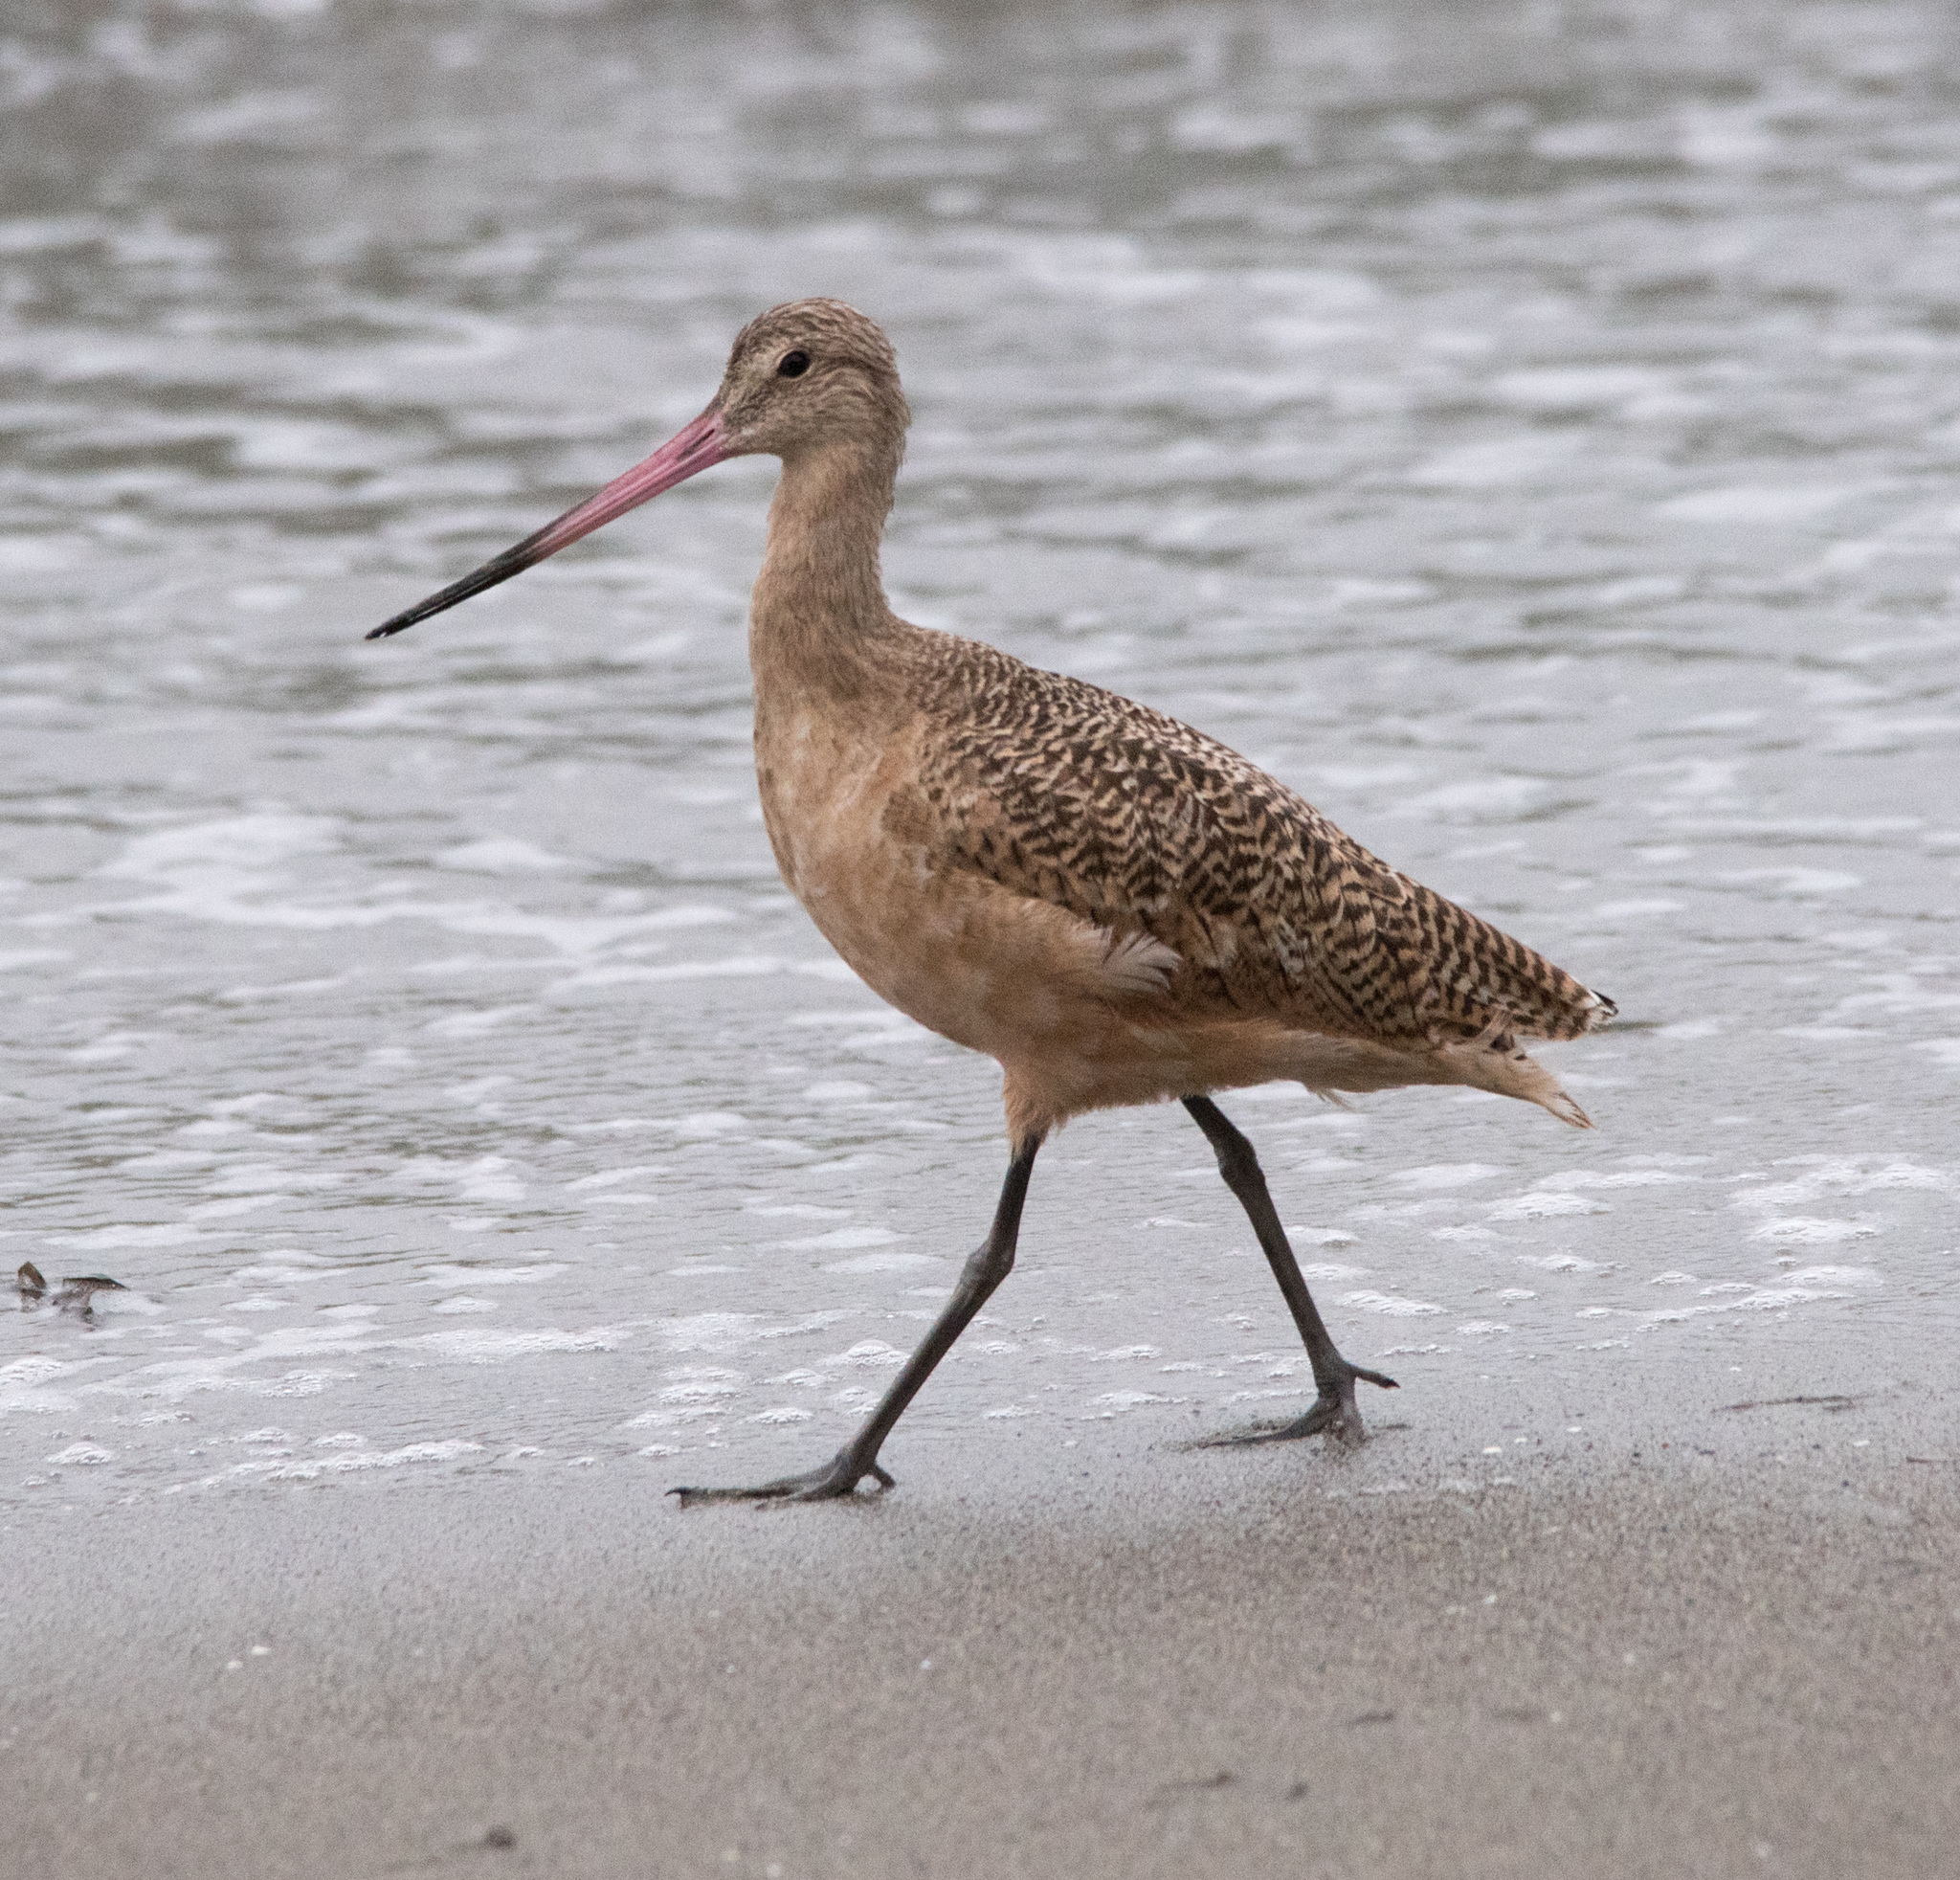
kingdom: Animalia
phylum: Chordata
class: Aves
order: Charadriiformes
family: Scolopacidae
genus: Limosa
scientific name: Limosa fedoa
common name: Marbled godwit
